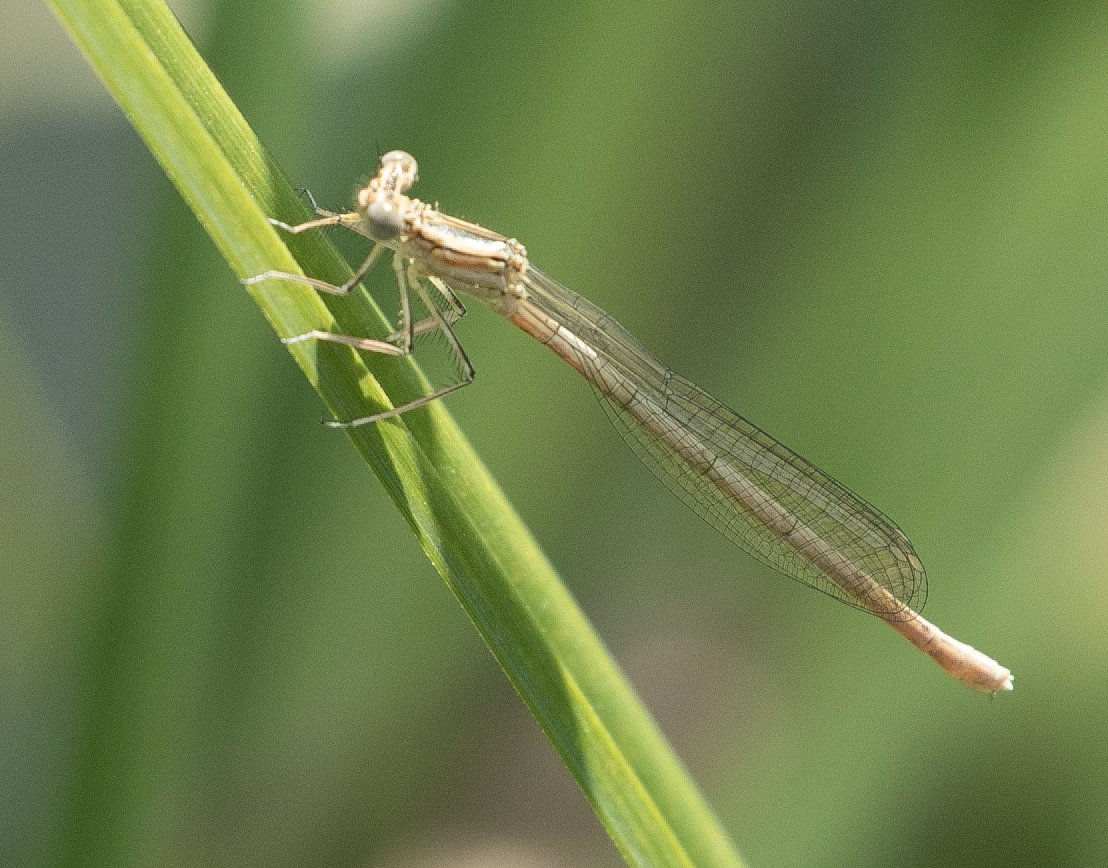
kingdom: Animalia
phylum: Arthropoda
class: Insecta
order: Odonata
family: Platycnemididae
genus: Platycnemis
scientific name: Platycnemis pennipes
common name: White-legged damselfly
